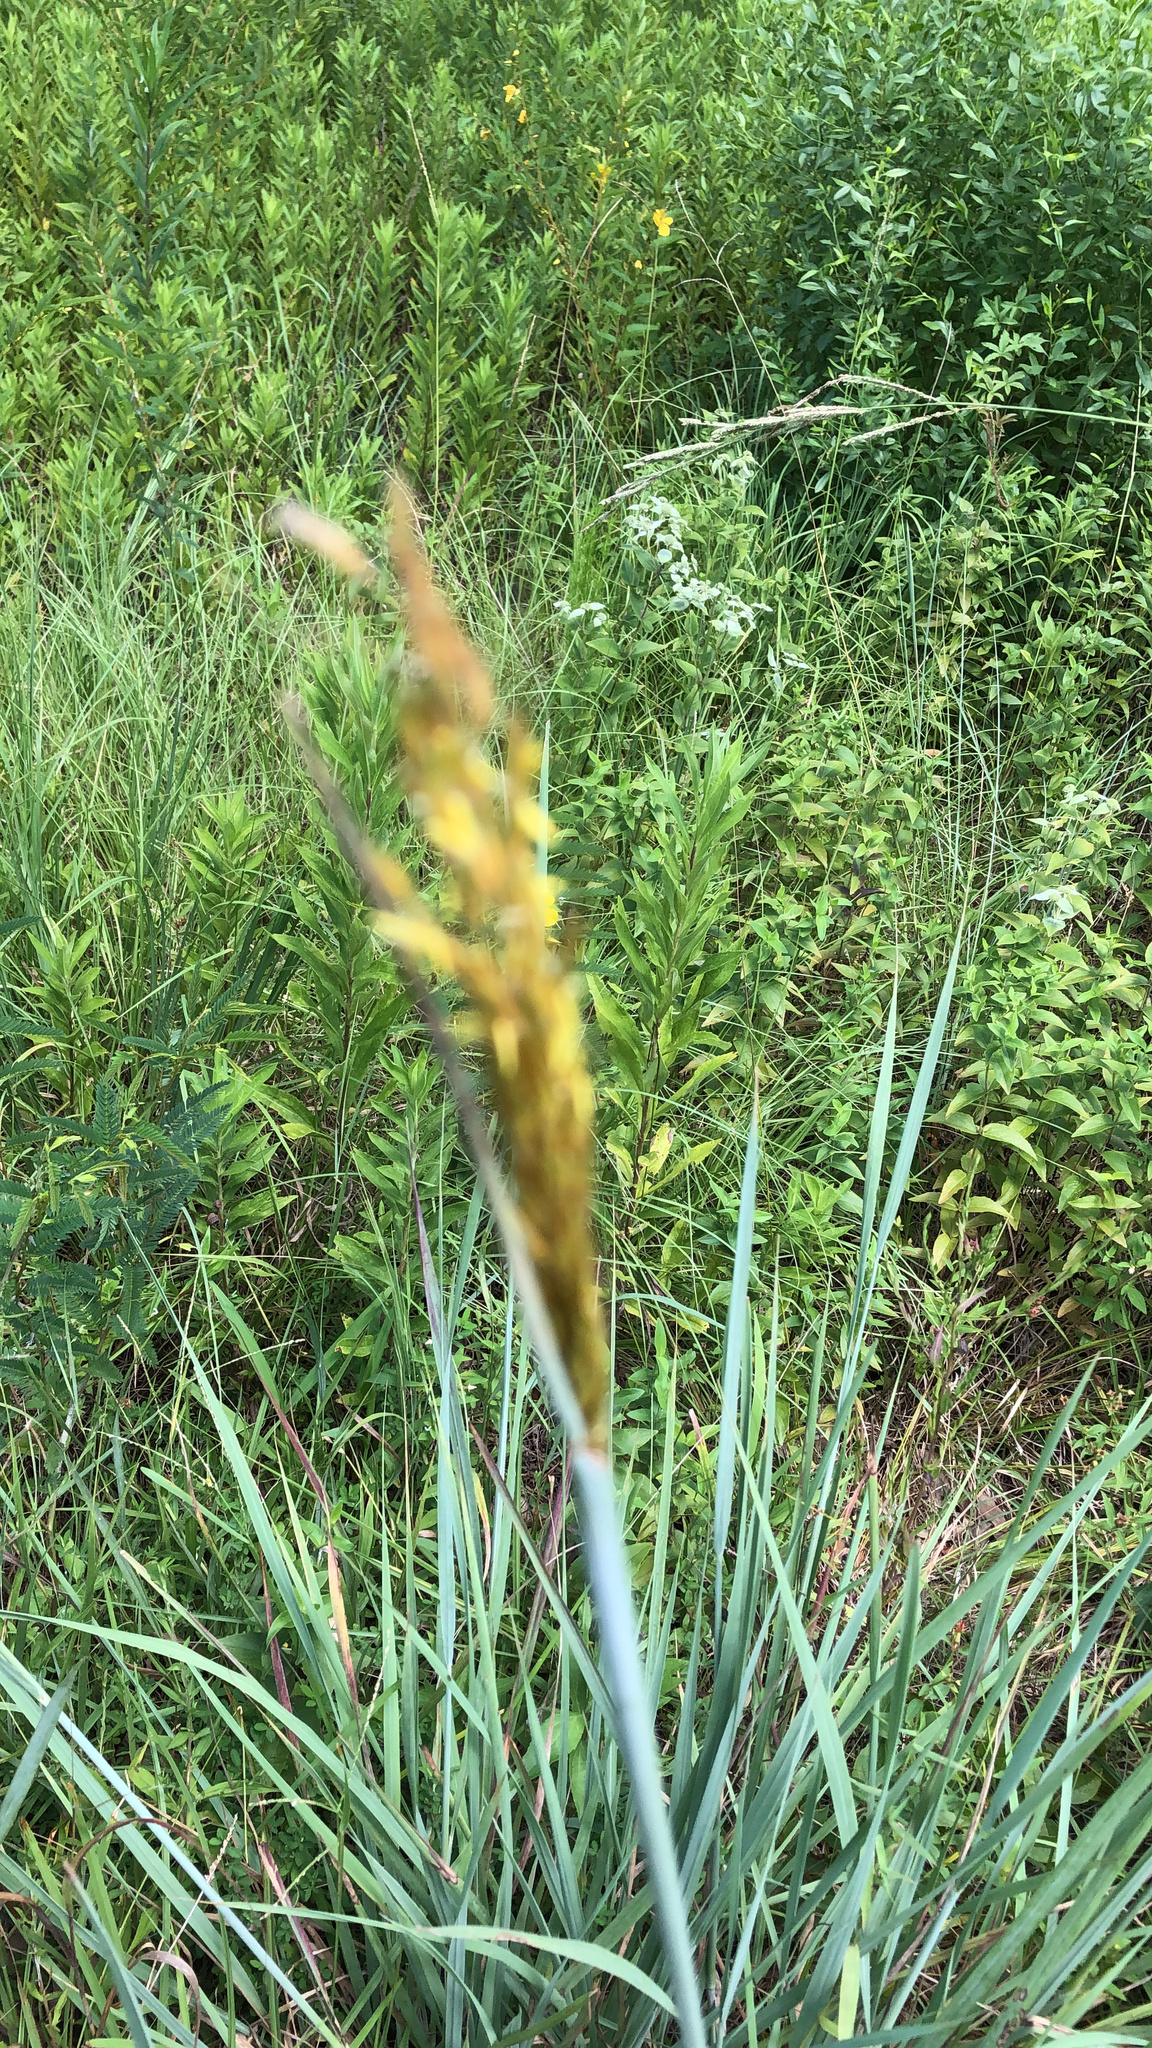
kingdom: Plantae
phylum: Tracheophyta
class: Liliopsida
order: Poales
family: Poaceae
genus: Sorghastrum
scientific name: Sorghastrum nutans
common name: Indian grass
